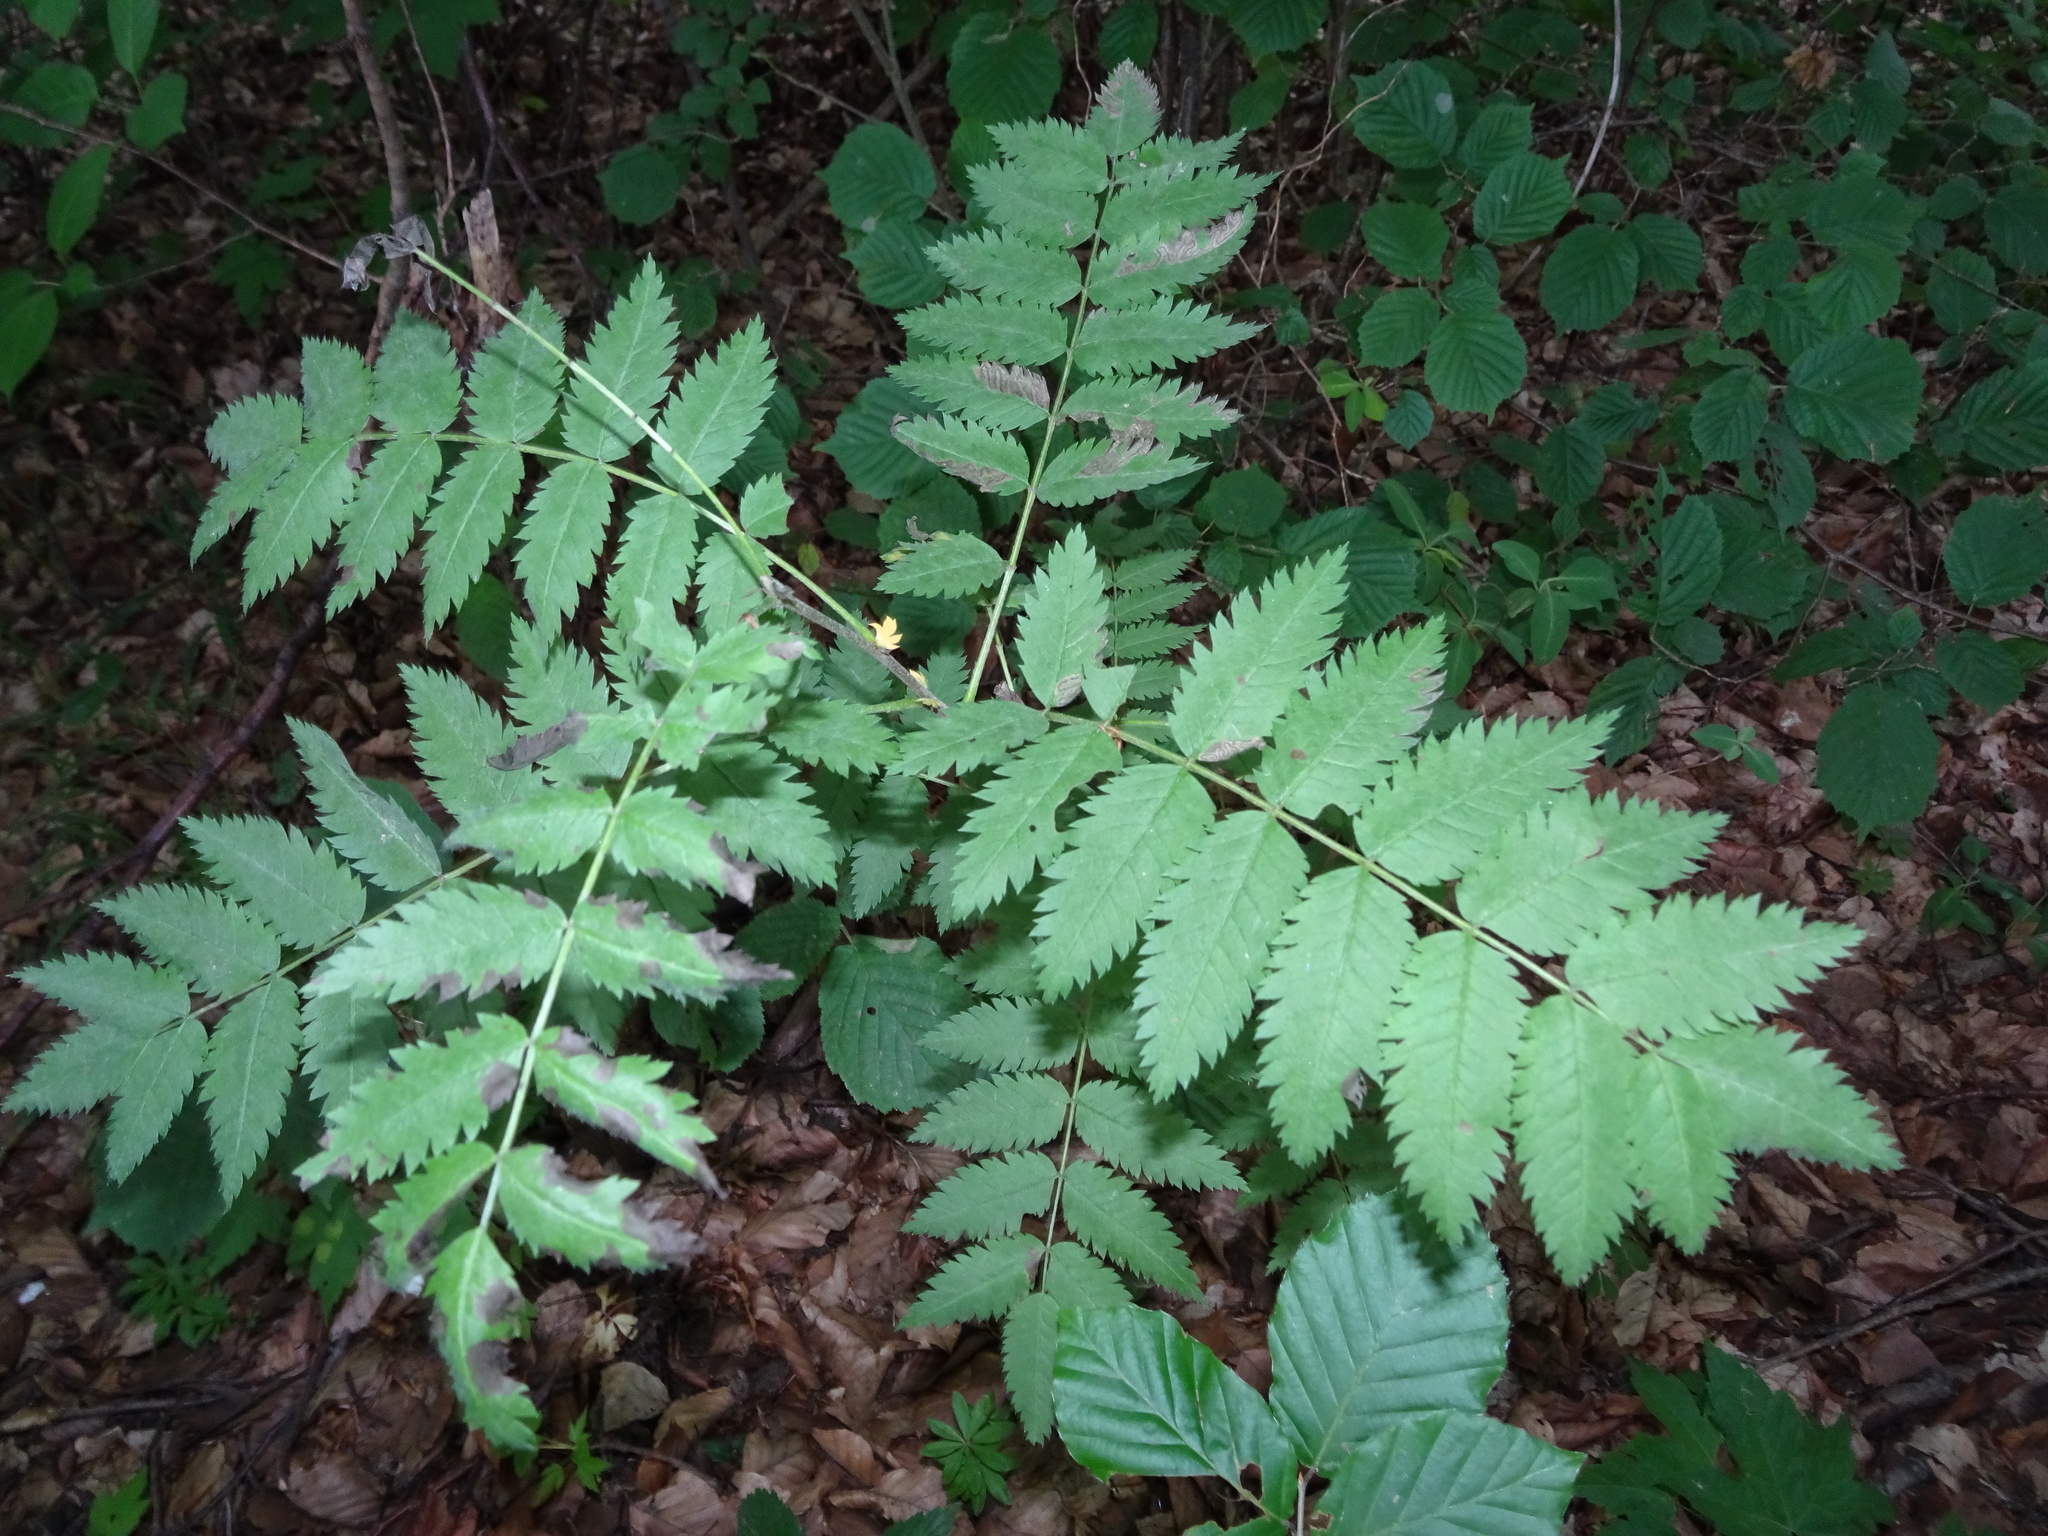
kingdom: Plantae
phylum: Tracheophyta
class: Magnoliopsida
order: Rosales
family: Rosaceae
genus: Sorbus
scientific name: Sorbus aucuparia
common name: Rowan
